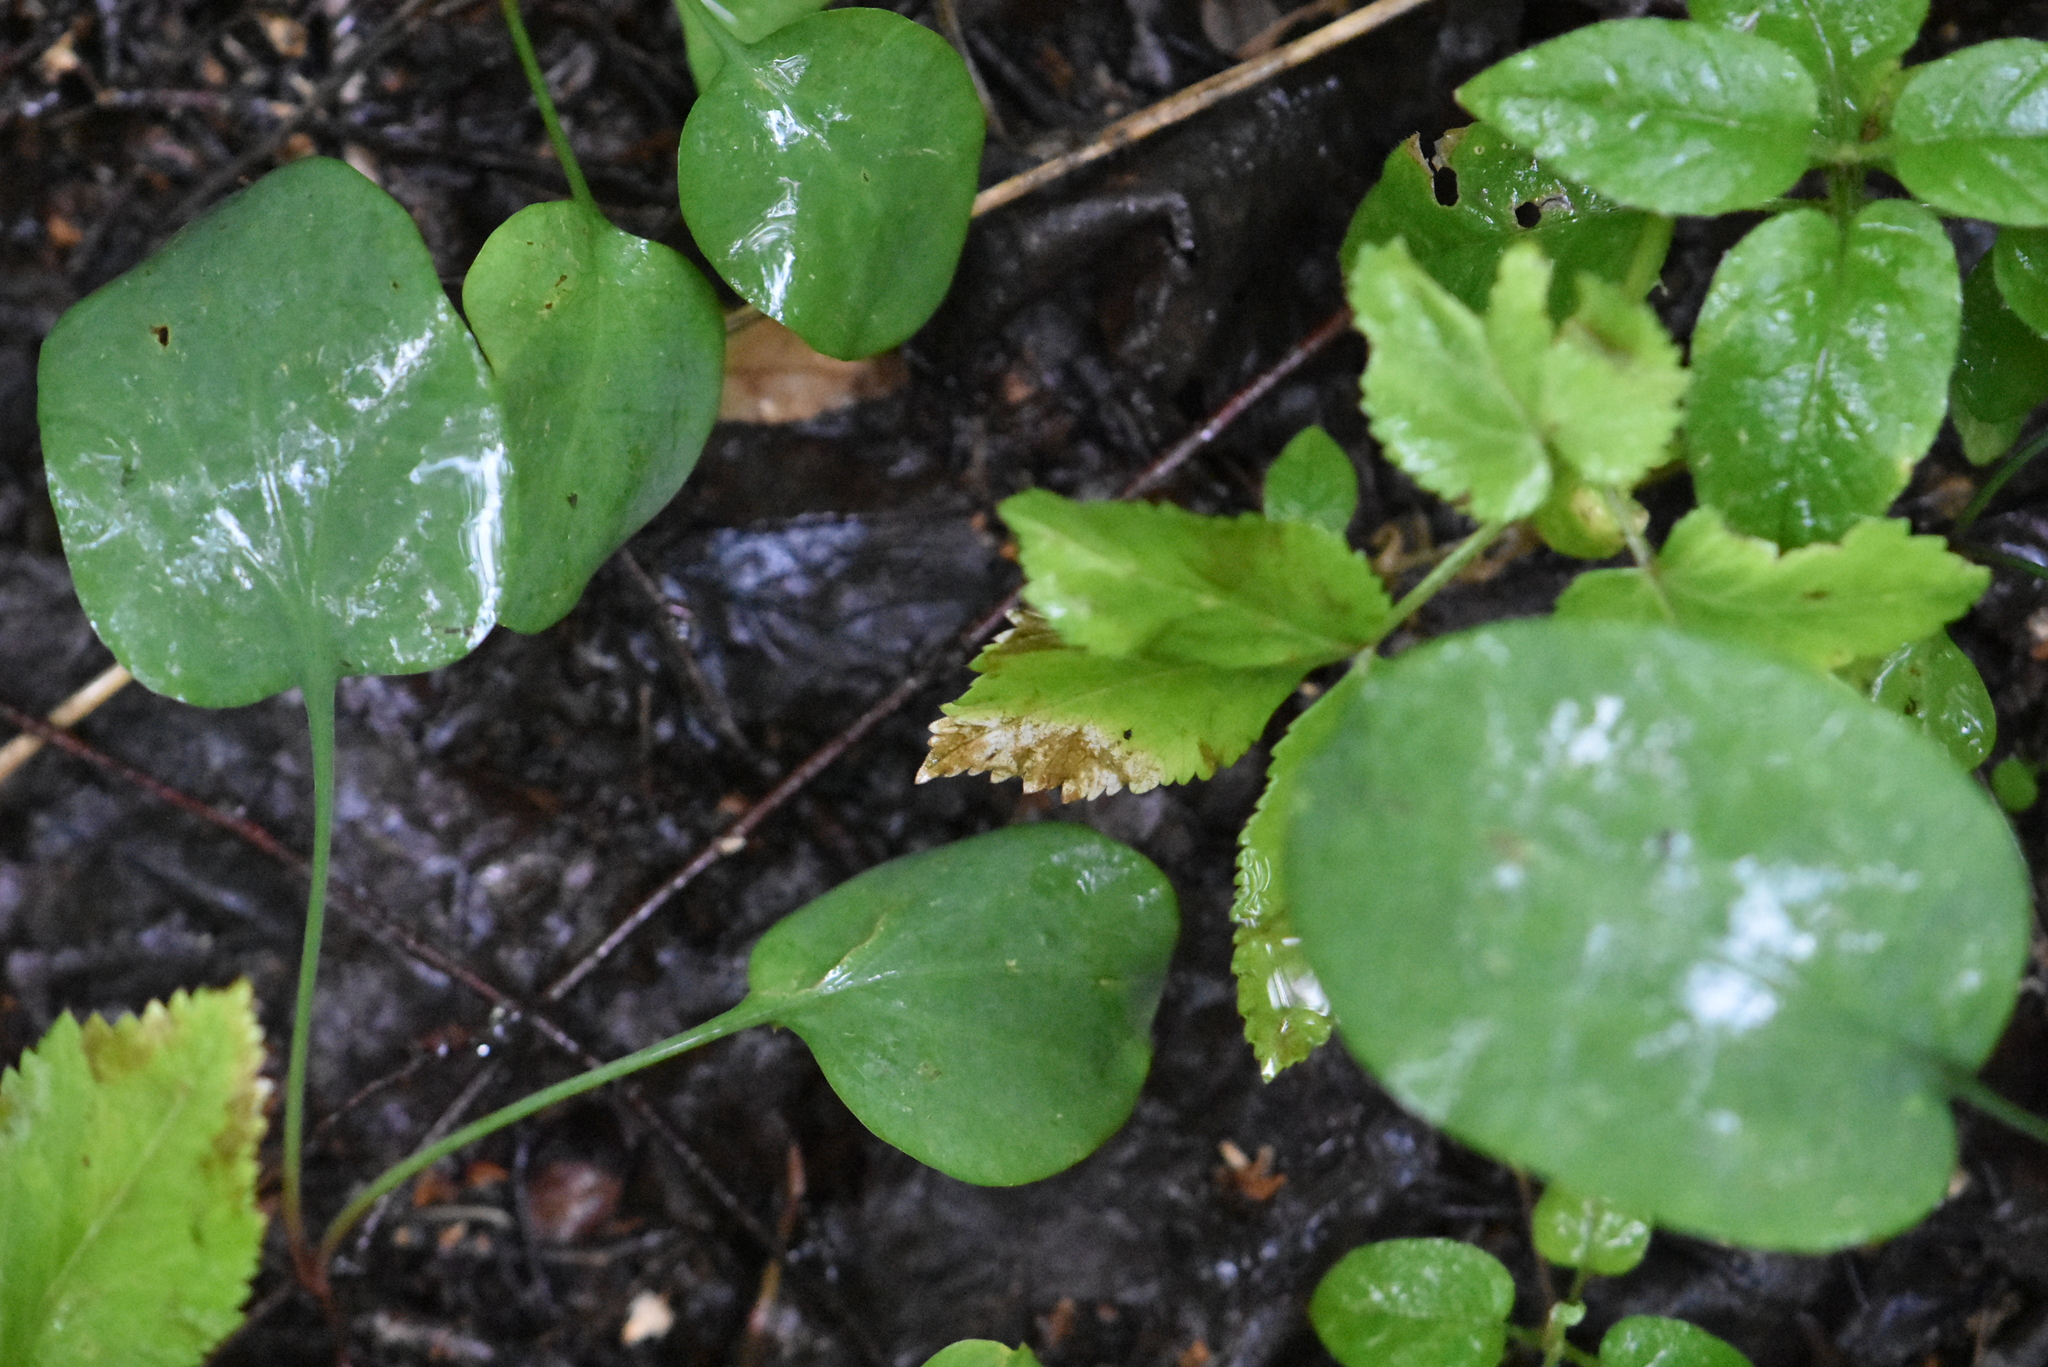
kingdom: Plantae
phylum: Tracheophyta
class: Magnoliopsida
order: Apiales
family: Apiaceae
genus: Bupleurum
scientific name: Bupleurum aureum
